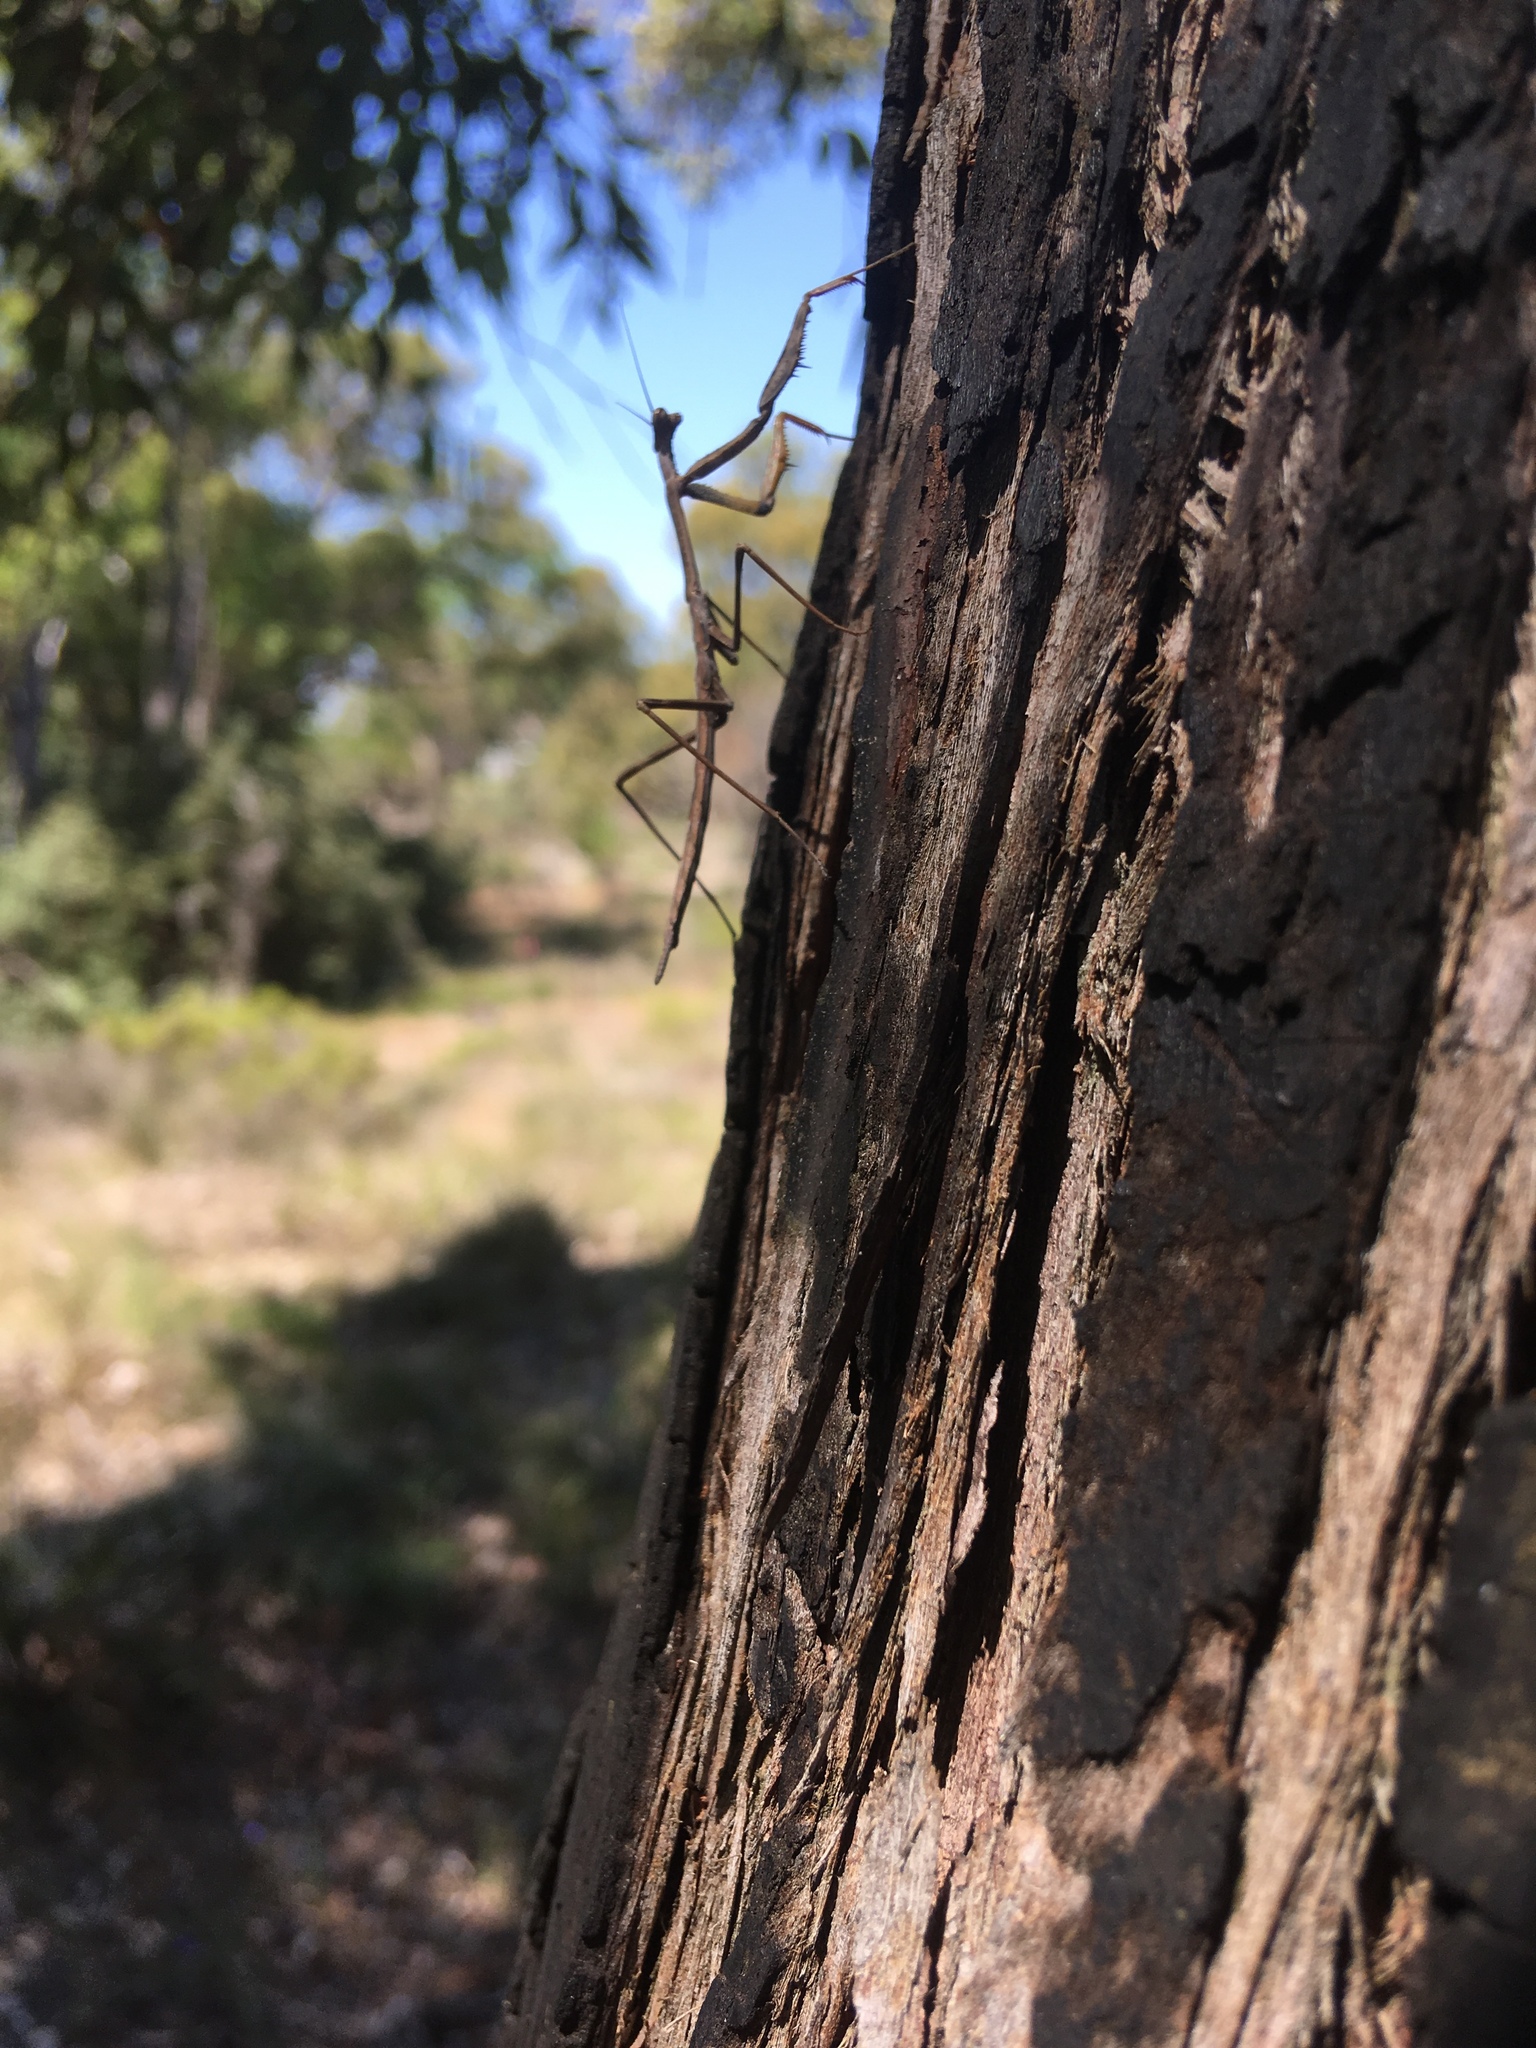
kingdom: Animalia
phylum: Arthropoda
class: Insecta
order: Mantodea
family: Mantidae
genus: Archimantis
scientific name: Archimantis sobrina
